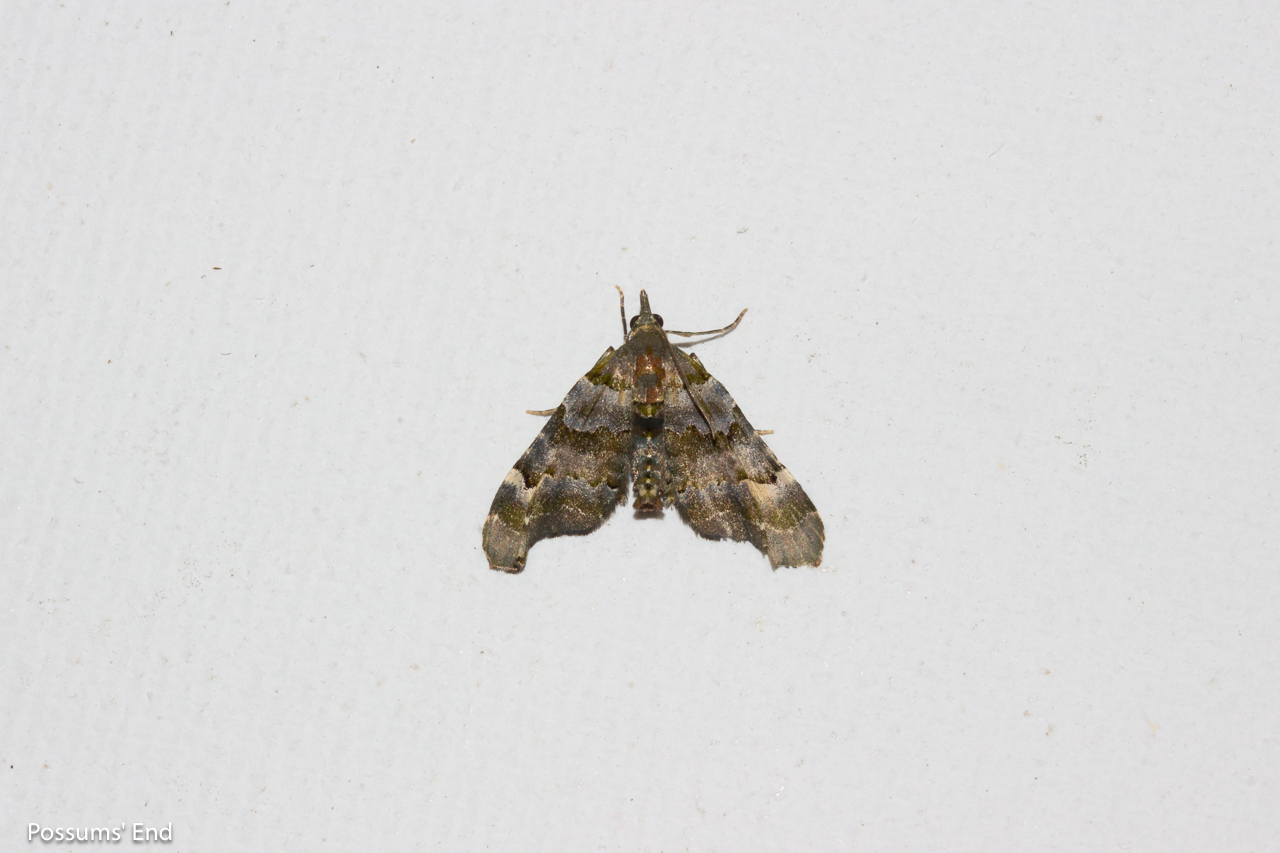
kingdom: Animalia
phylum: Arthropoda
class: Insecta
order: Lepidoptera
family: Geometridae
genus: Elvia
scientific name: Elvia glaucata
